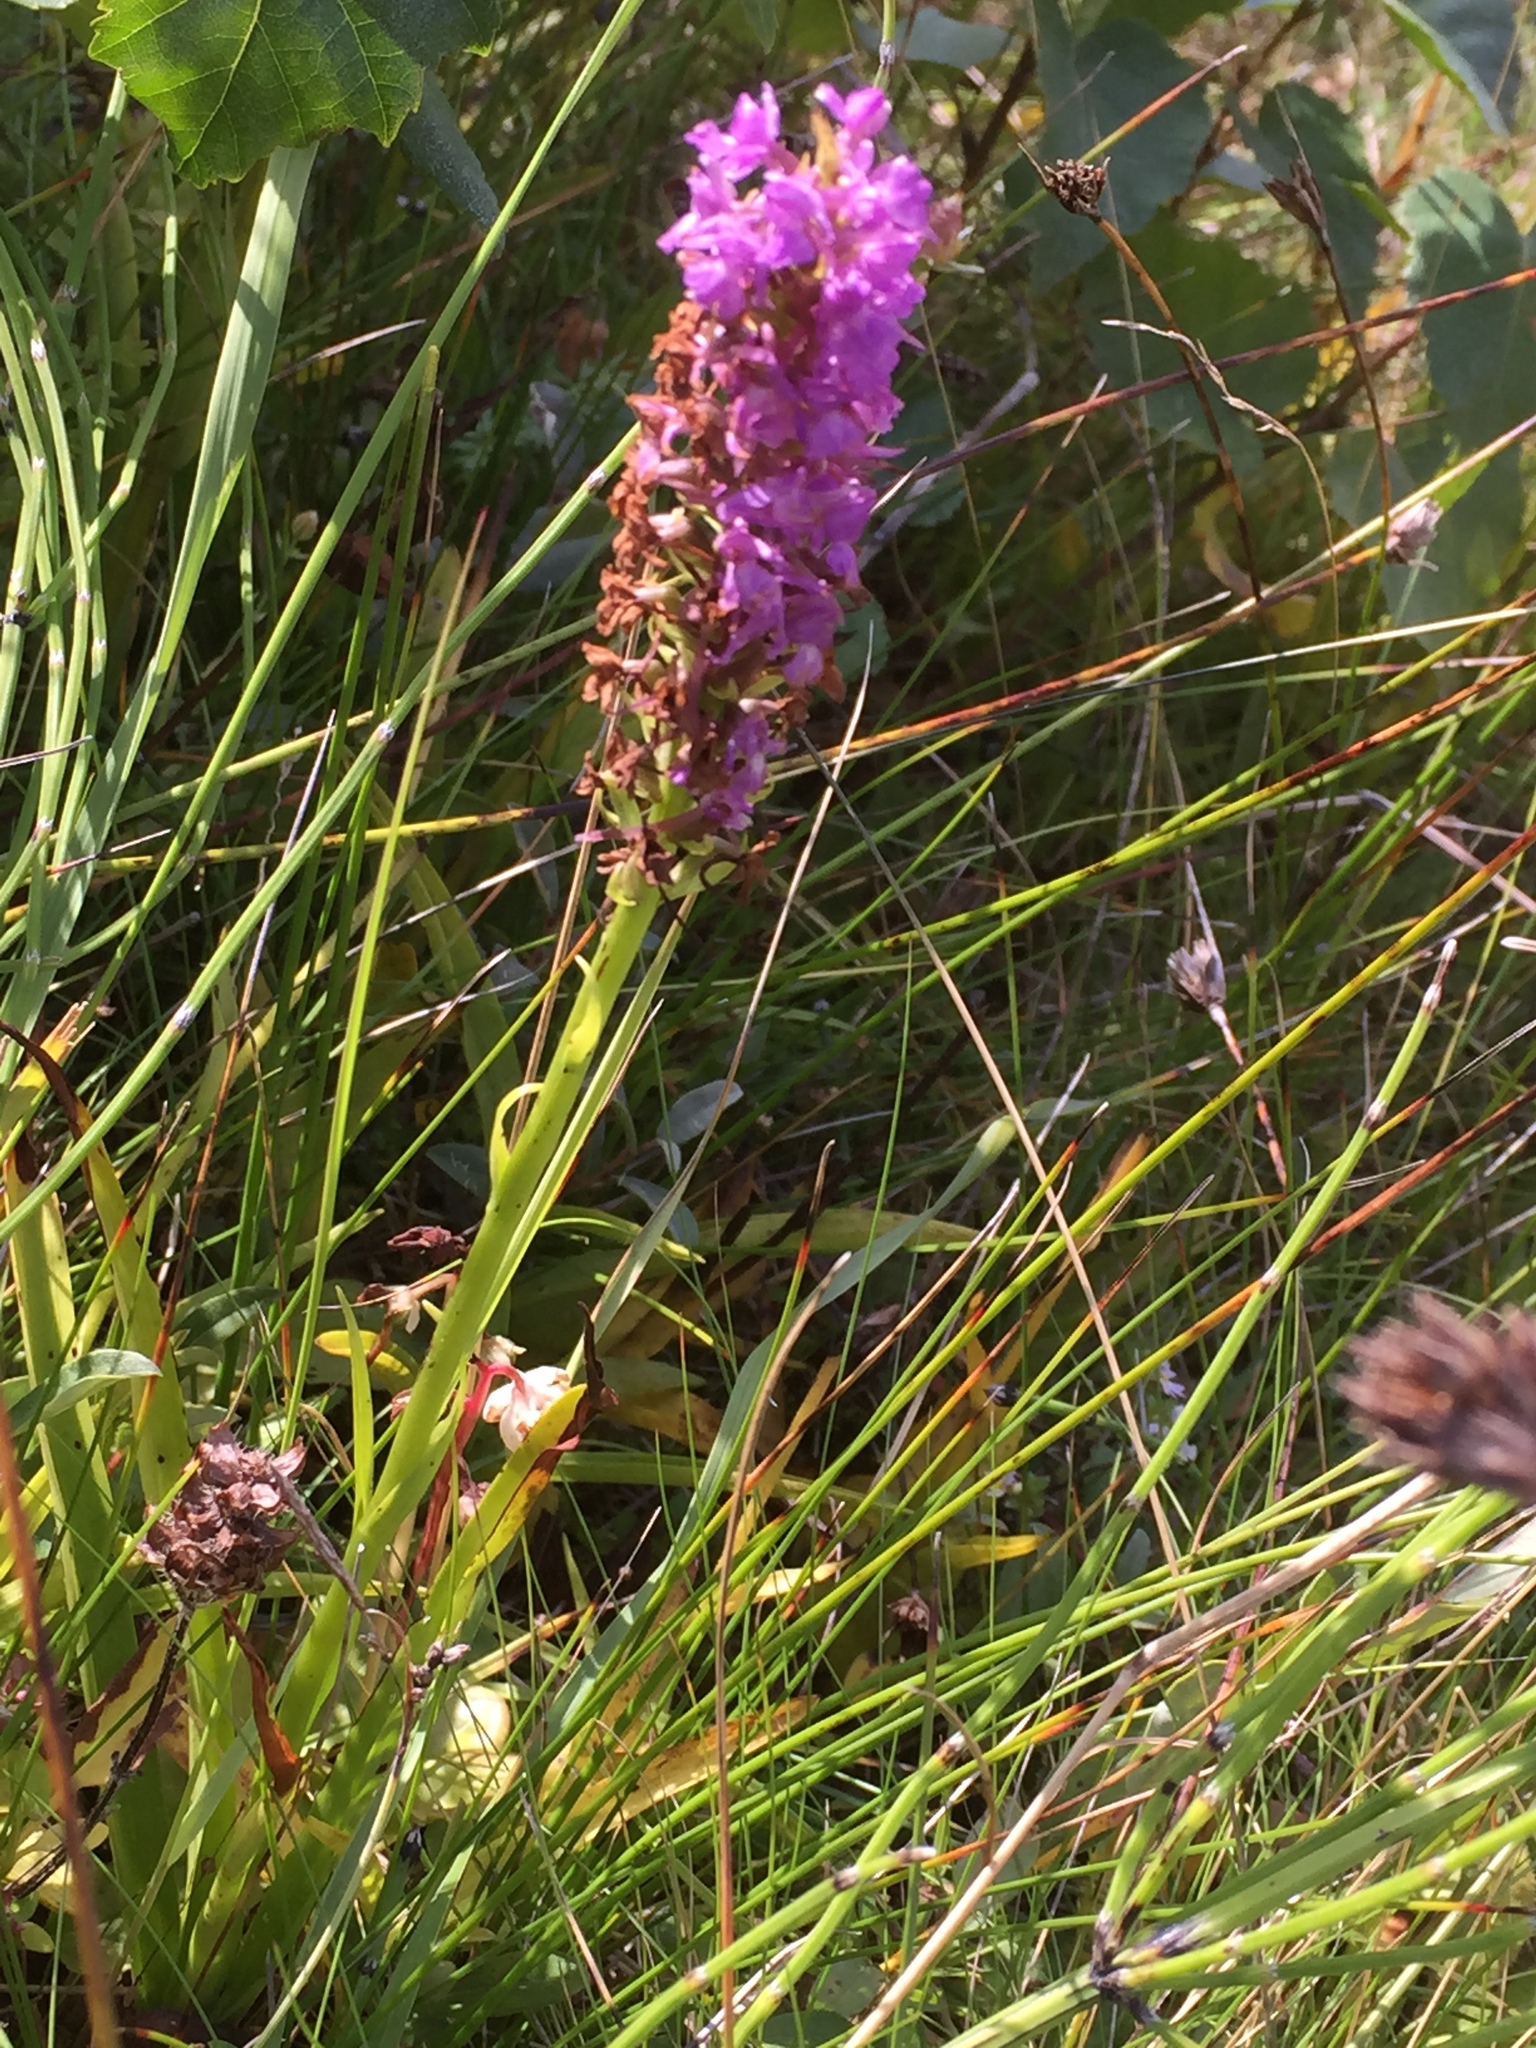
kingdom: Plantae
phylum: Tracheophyta
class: Liliopsida
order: Asparagales
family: Orchidaceae
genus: Gymnadenia
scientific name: Gymnadenia conopsea
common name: Fragrant orchid
